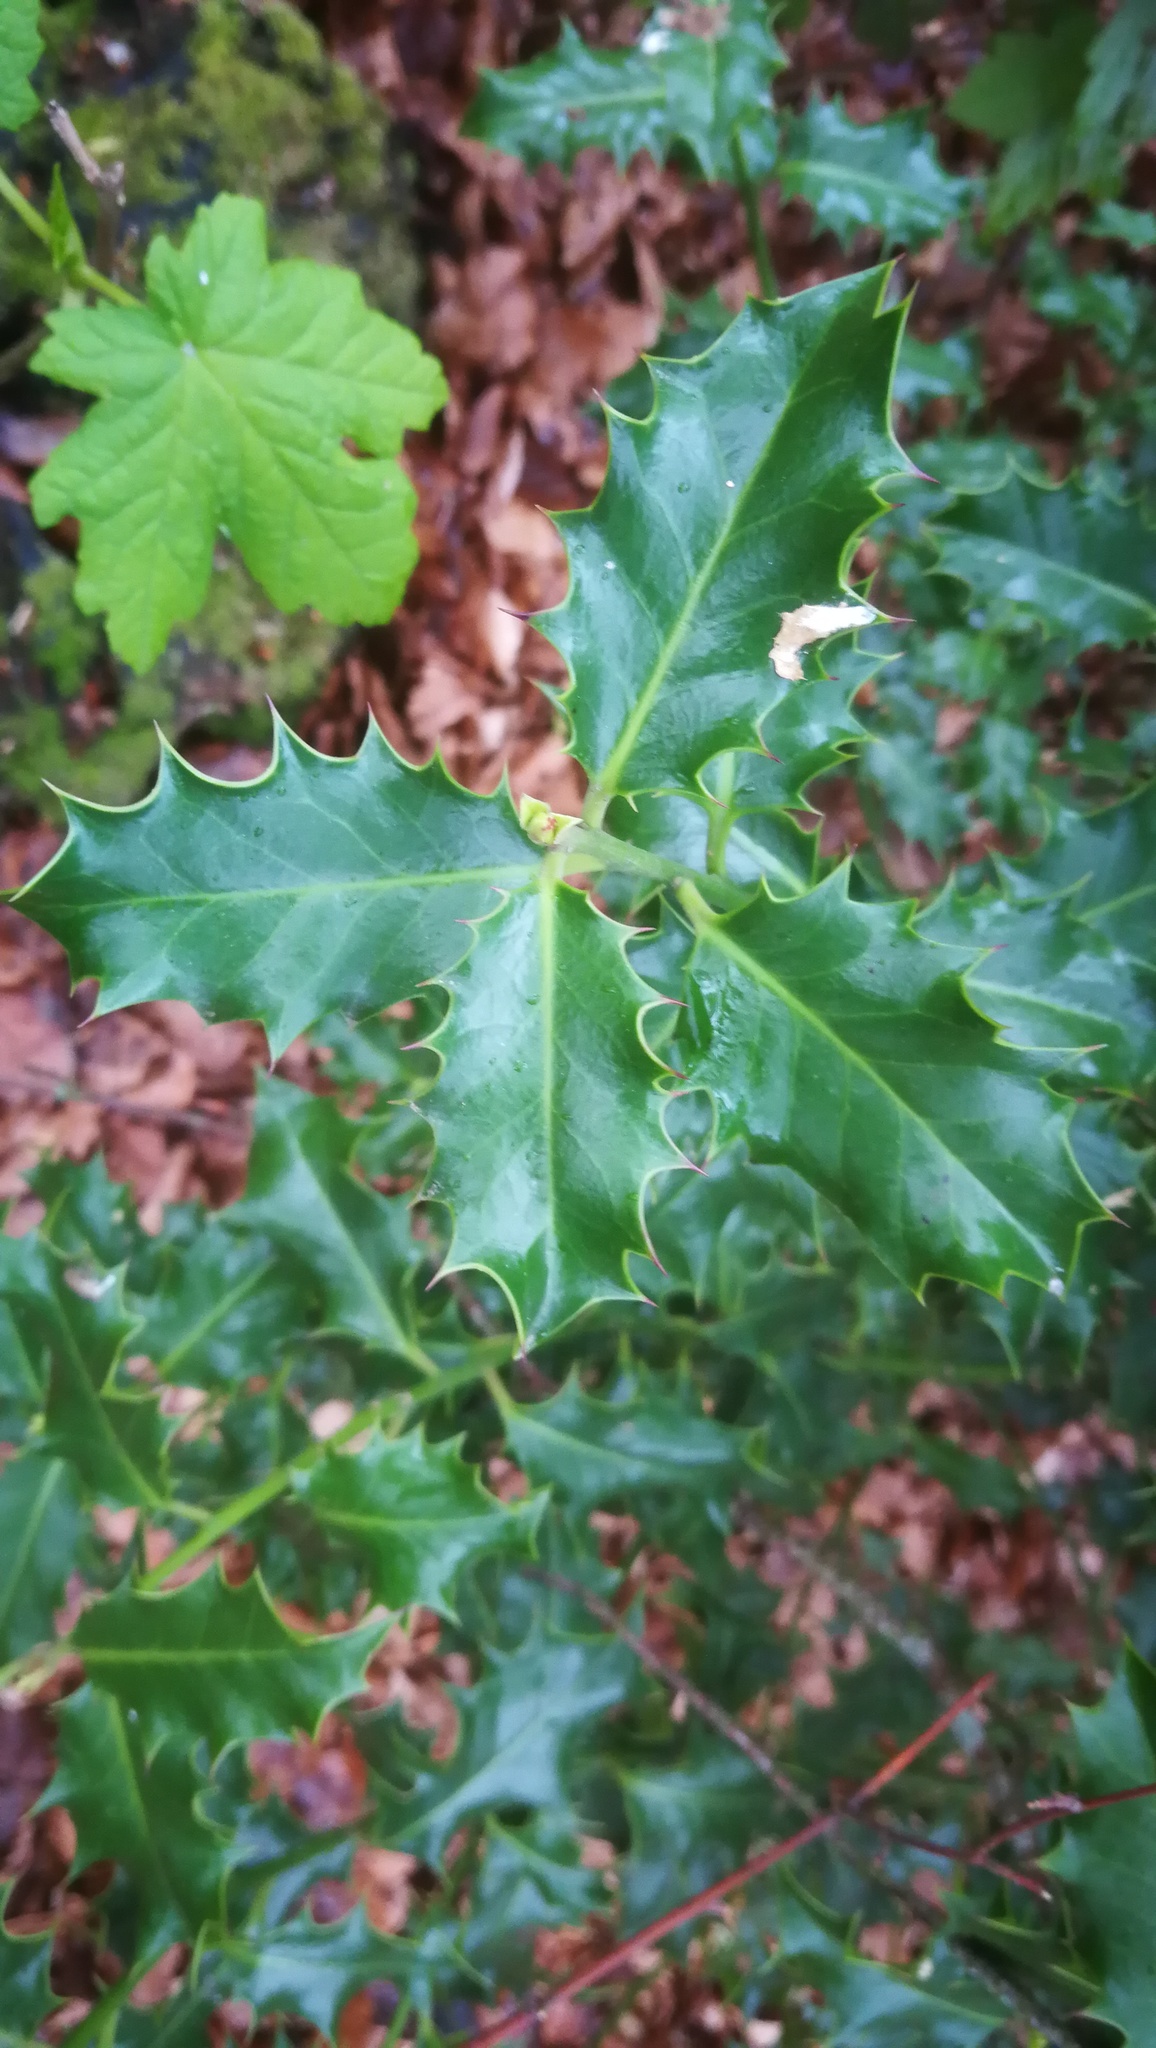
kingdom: Plantae
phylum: Tracheophyta
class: Magnoliopsida
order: Aquifoliales
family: Aquifoliaceae
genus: Ilex
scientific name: Ilex aquifolium
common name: English holly
